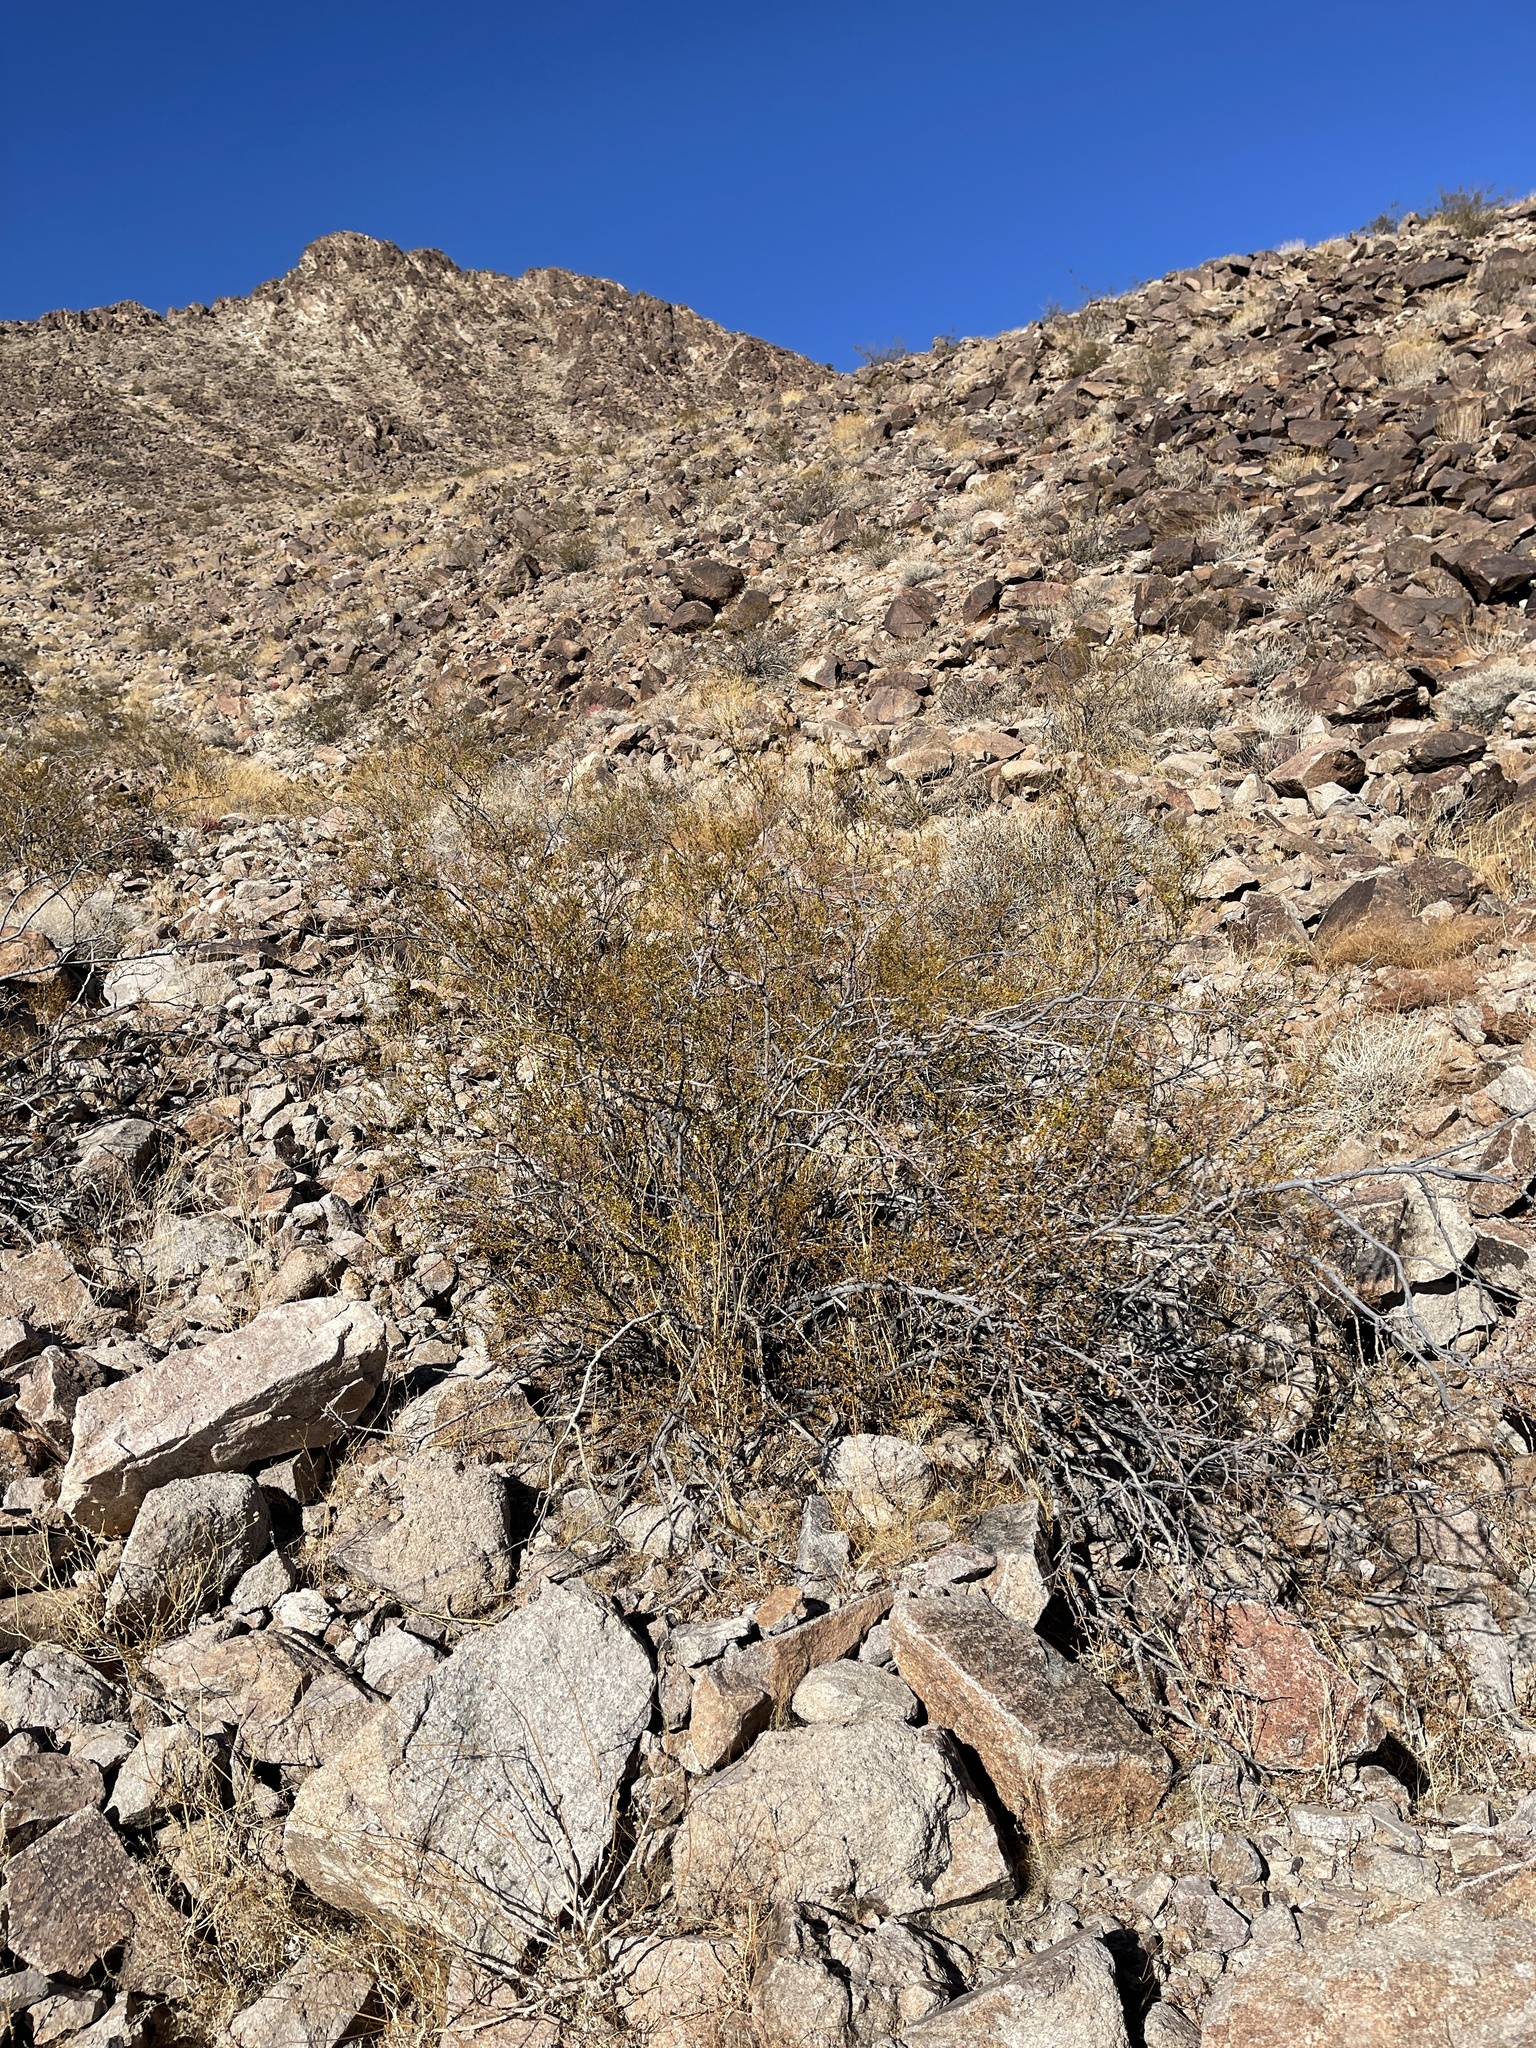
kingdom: Plantae
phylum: Tracheophyta
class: Magnoliopsida
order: Zygophyllales
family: Zygophyllaceae
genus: Larrea
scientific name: Larrea tridentata
